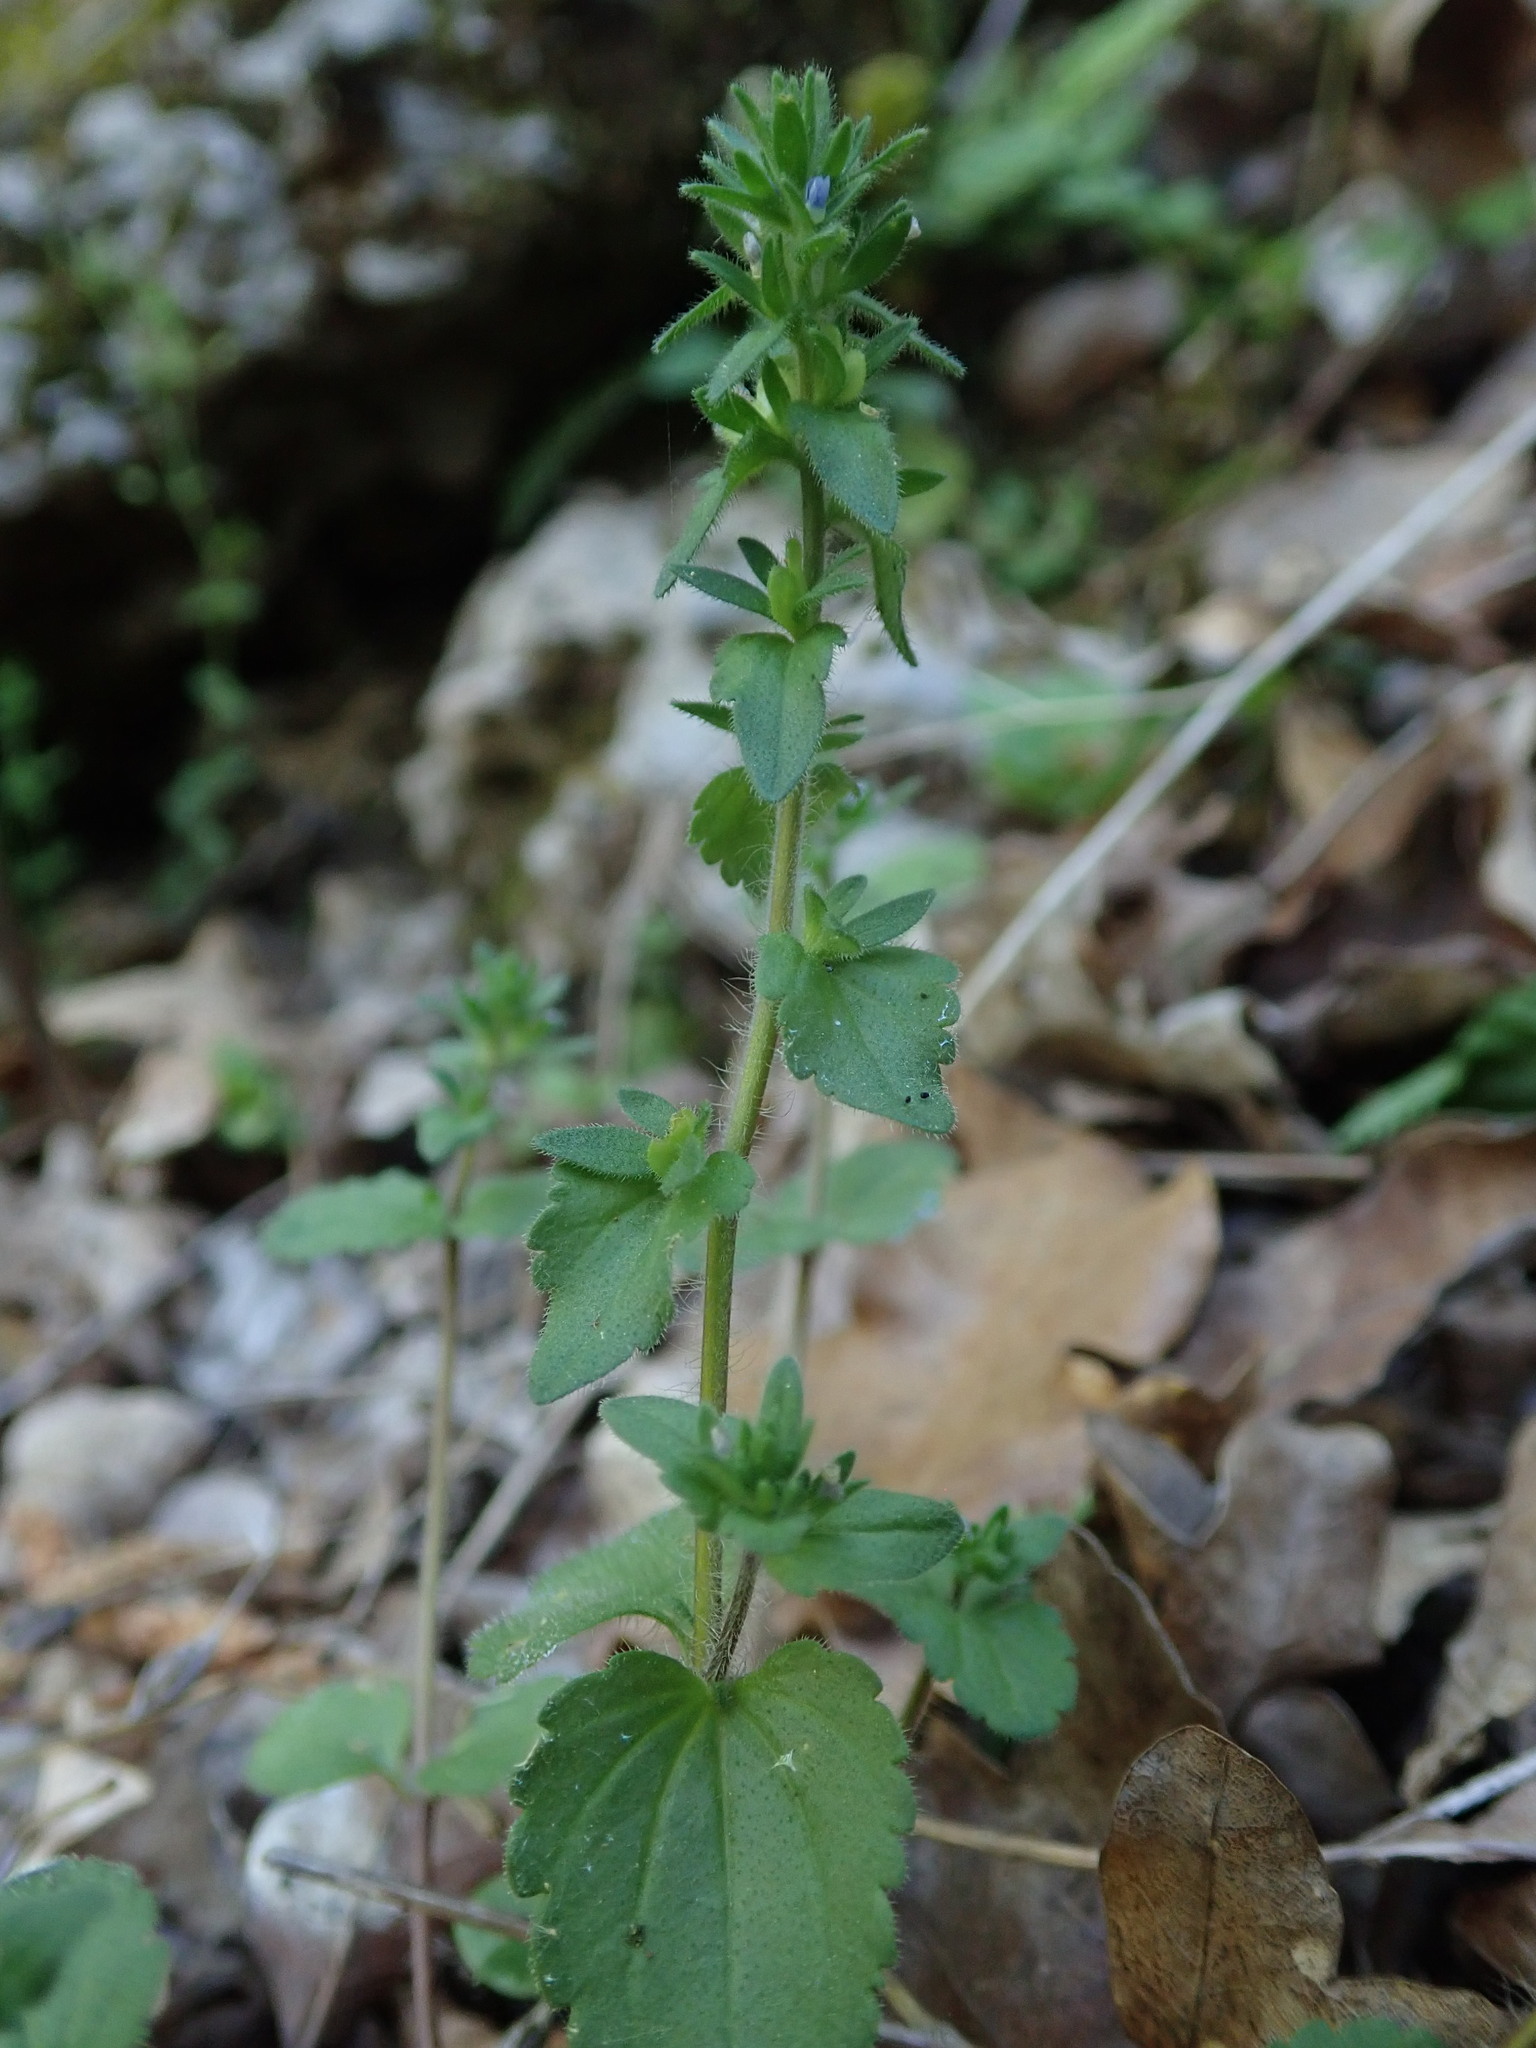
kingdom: Plantae
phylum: Tracheophyta
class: Magnoliopsida
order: Lamiales
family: Plantaginaceae
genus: Veronica
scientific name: Veronica arvensis
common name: Corn speedwell
